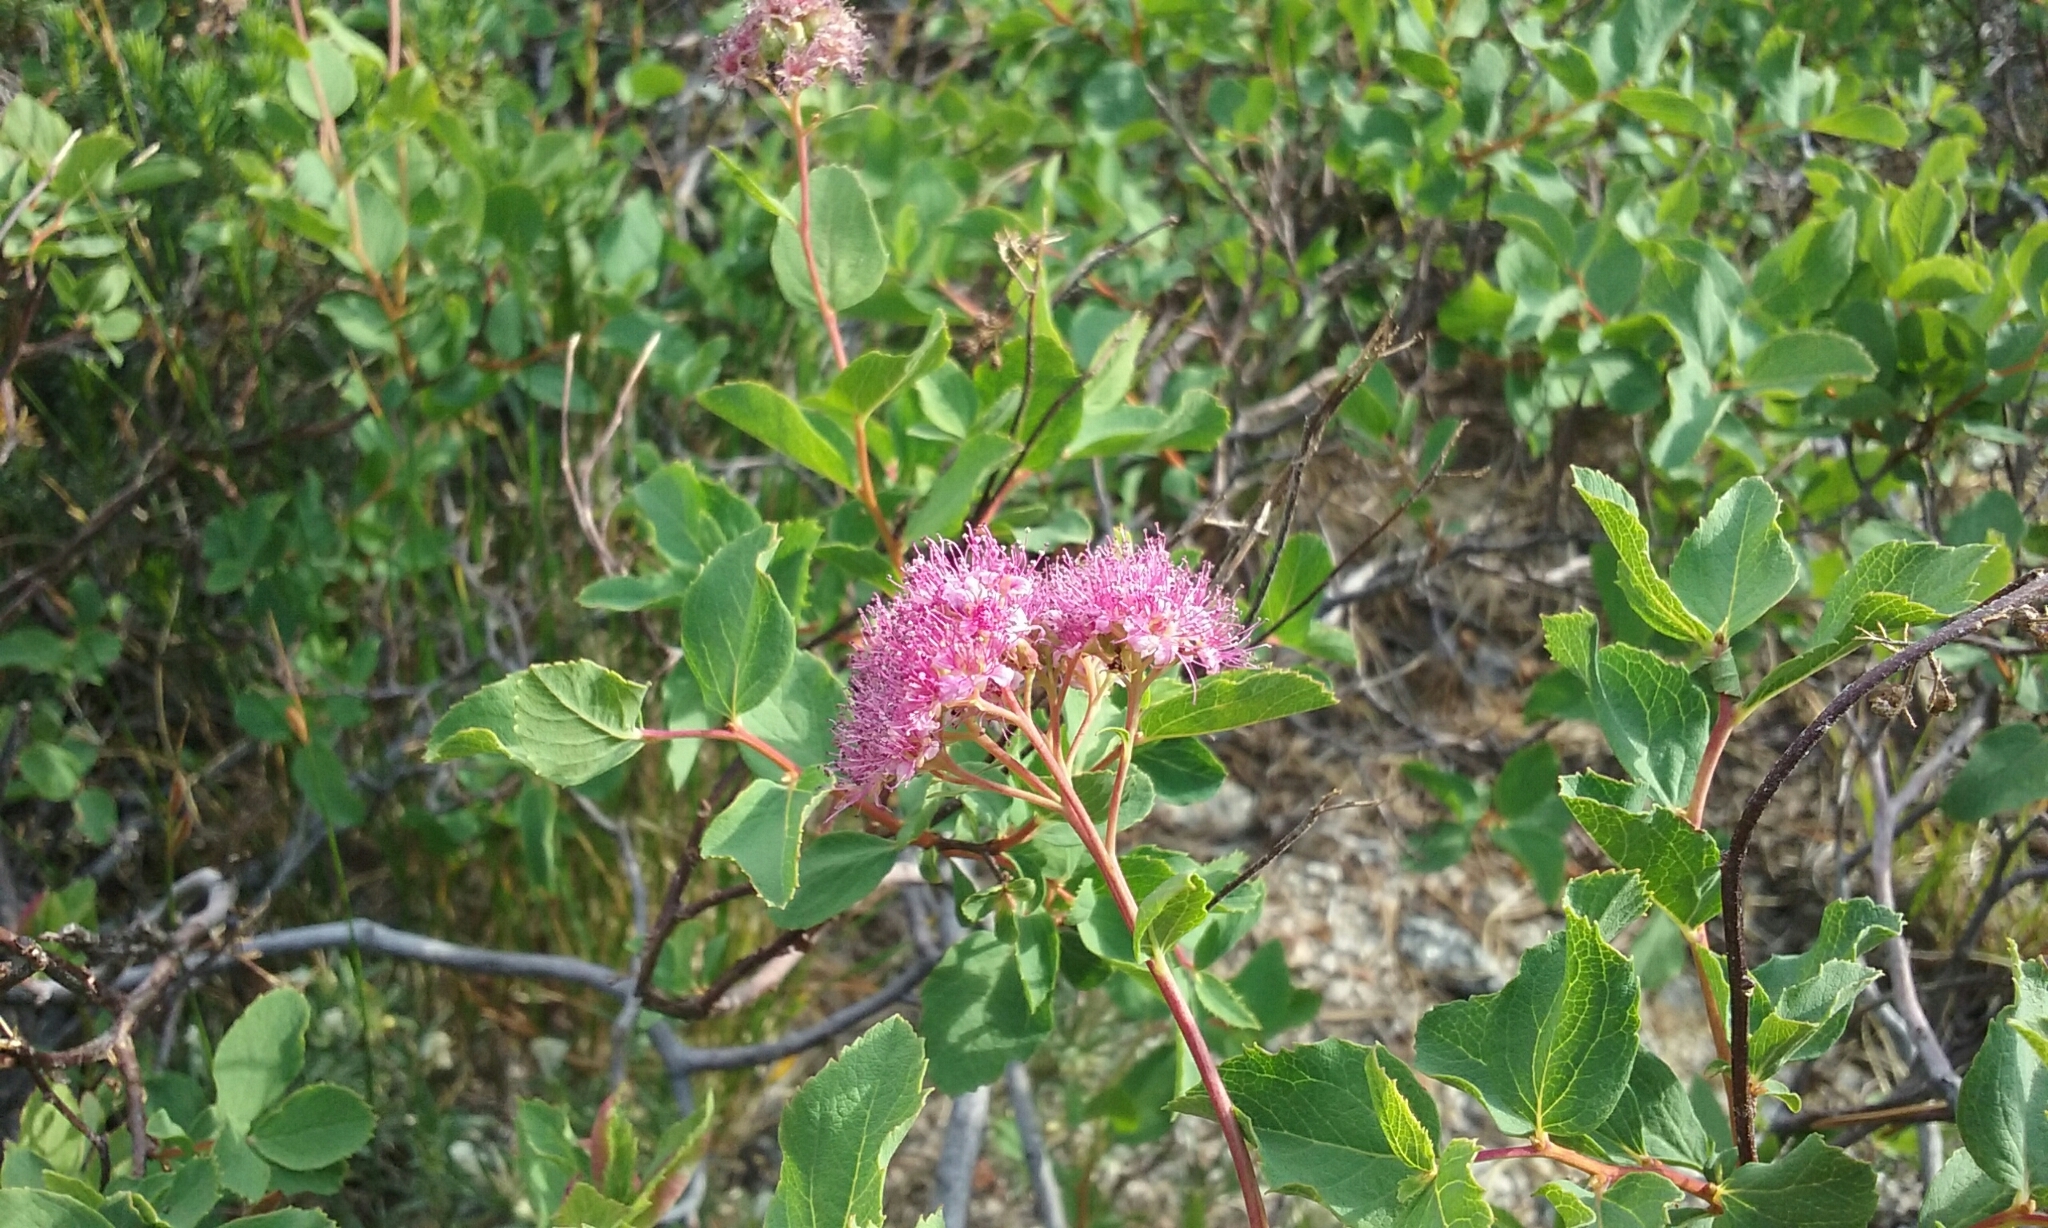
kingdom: Plantae
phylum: Tracheophyta
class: Magnoliopsida
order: Rosales
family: Rosaceae
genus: Spiraea
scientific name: Spiraea splendens
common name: Subalpine meadowsweet
